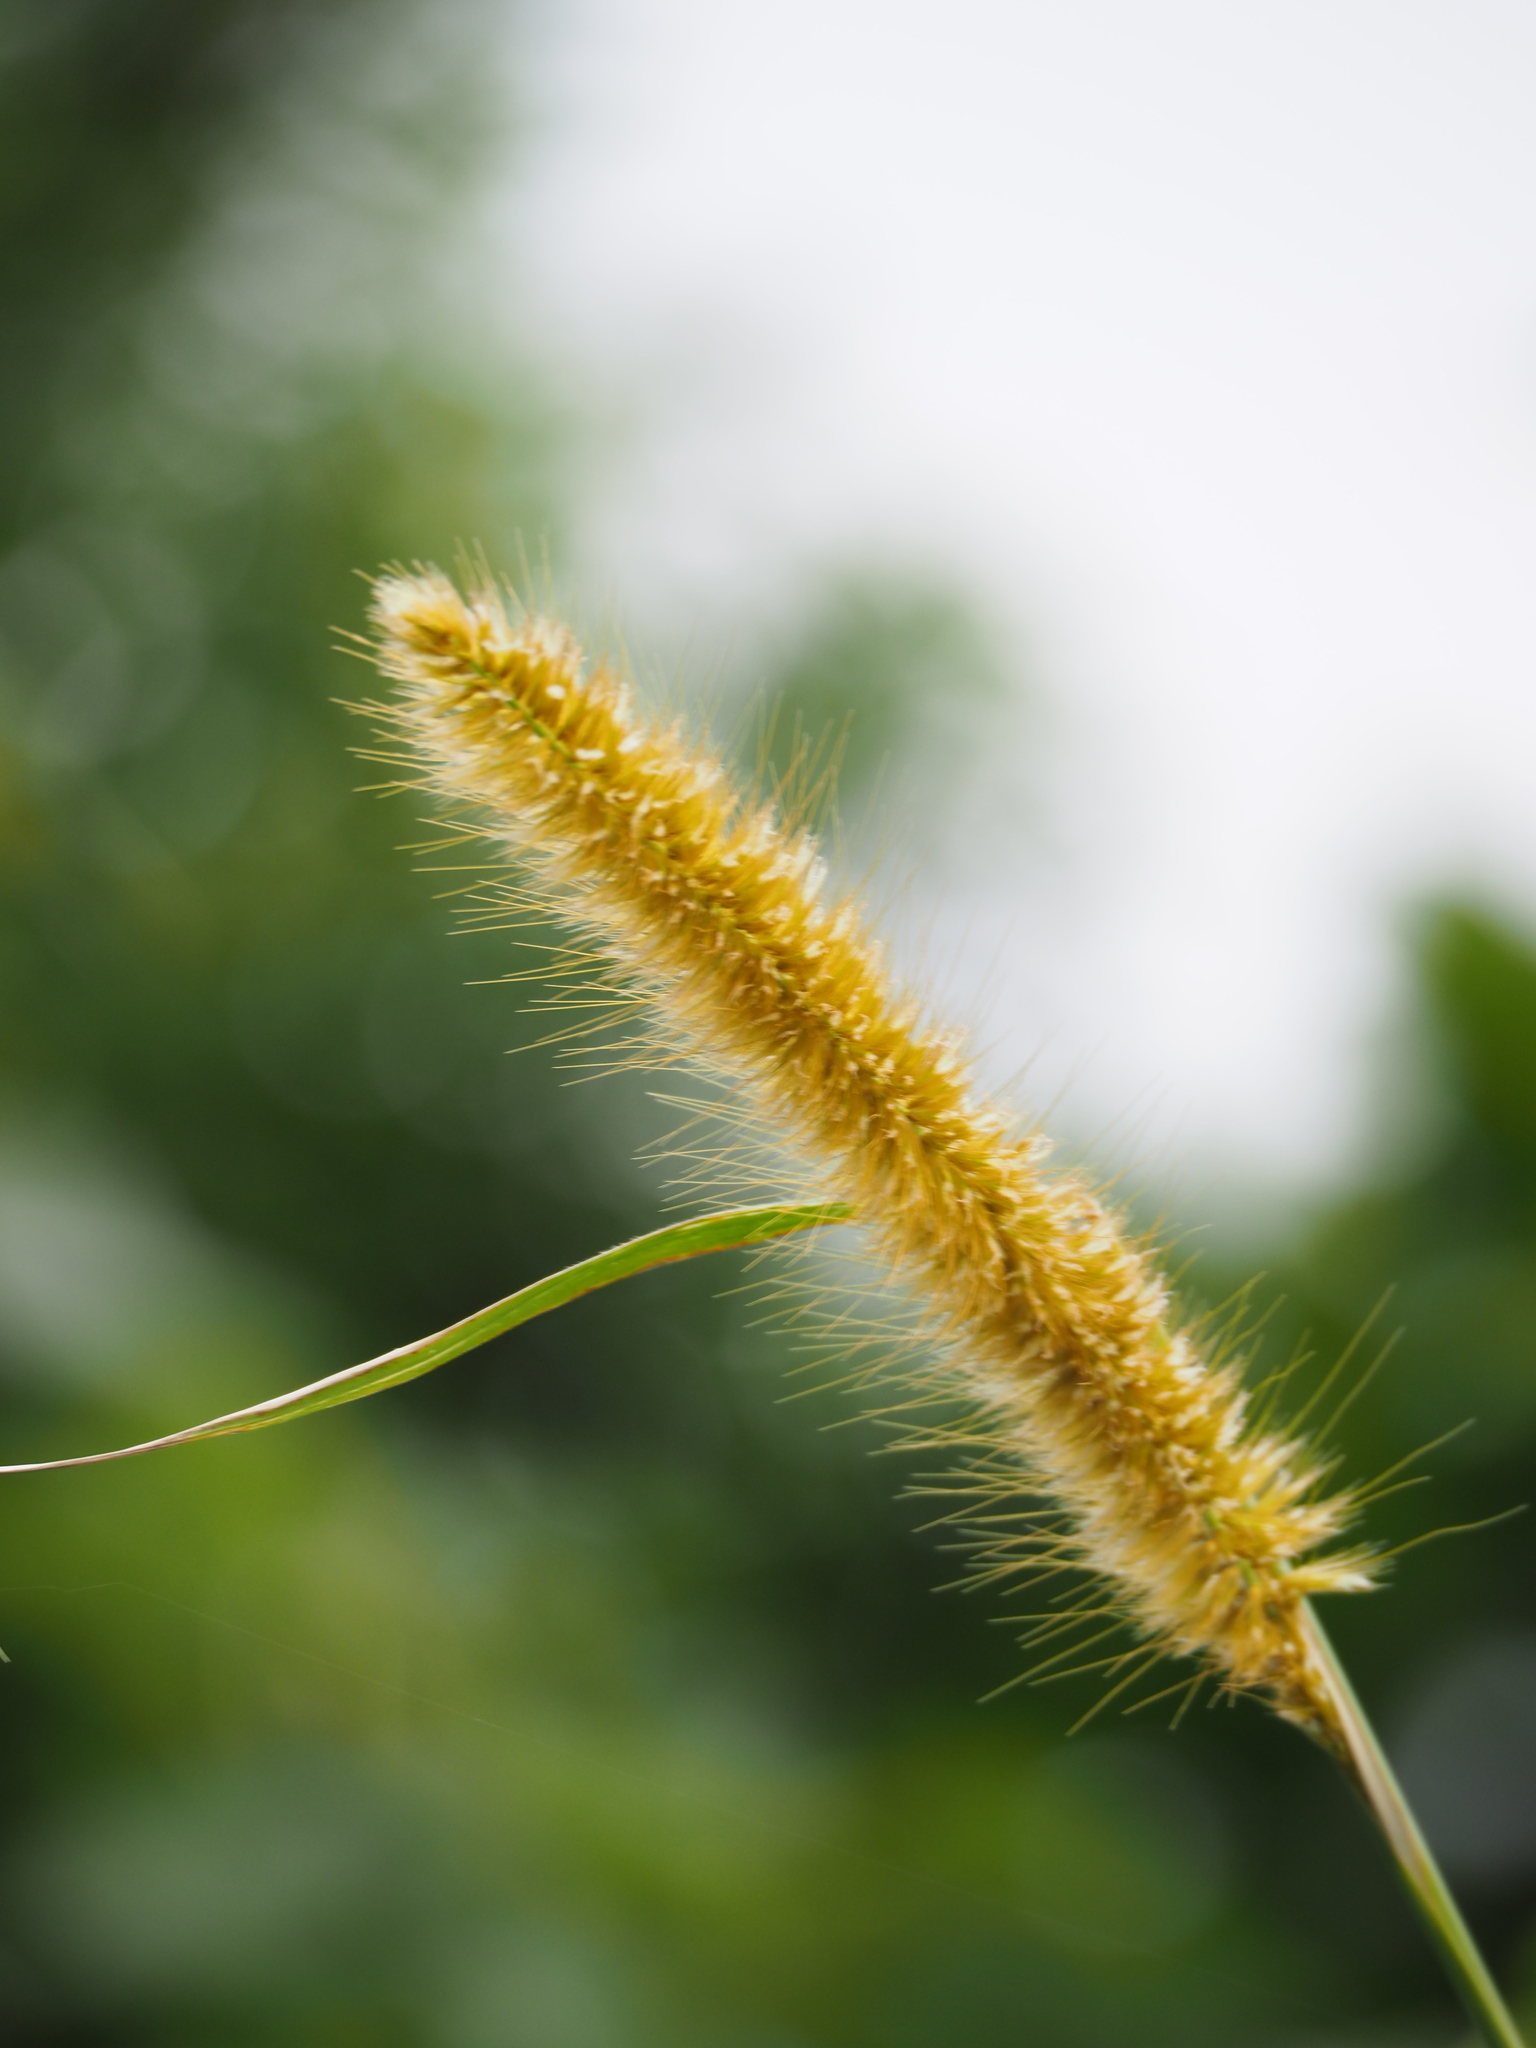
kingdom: Plantae
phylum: Tracheophyta
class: Liliopsida
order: Poales
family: Poaceae
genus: Cenchrus
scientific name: Cenchrus purpureus
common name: Elephant grass
